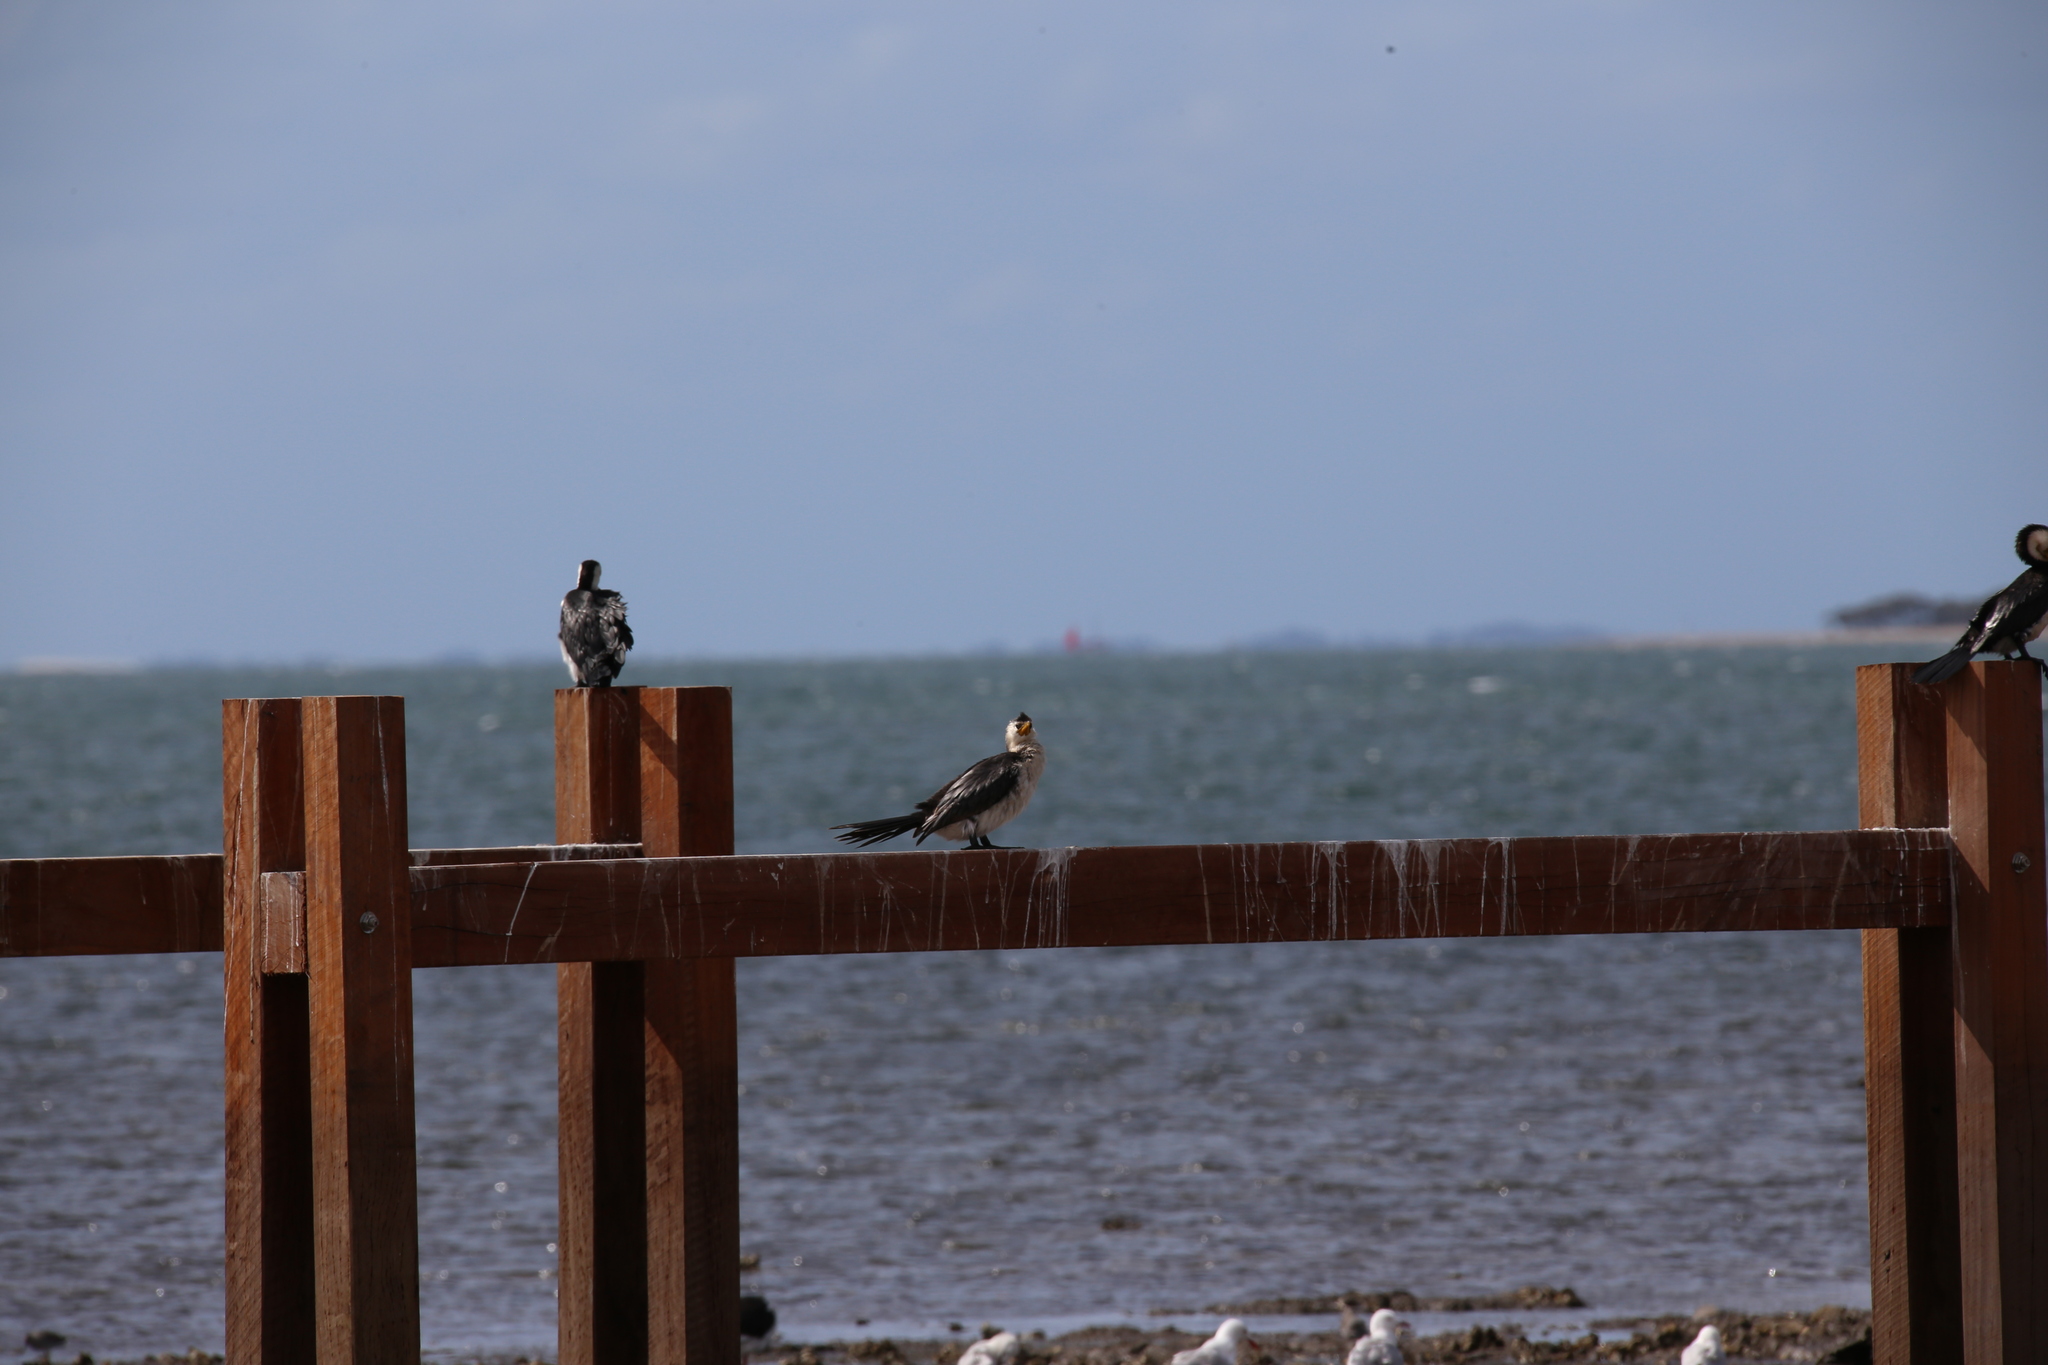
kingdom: Animalia
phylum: Chordata
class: Aves
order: Suliformes
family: Phalacrocoracidae
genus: Microcarbo
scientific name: Microcarbo melanoleucos
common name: Little pied cormorant
